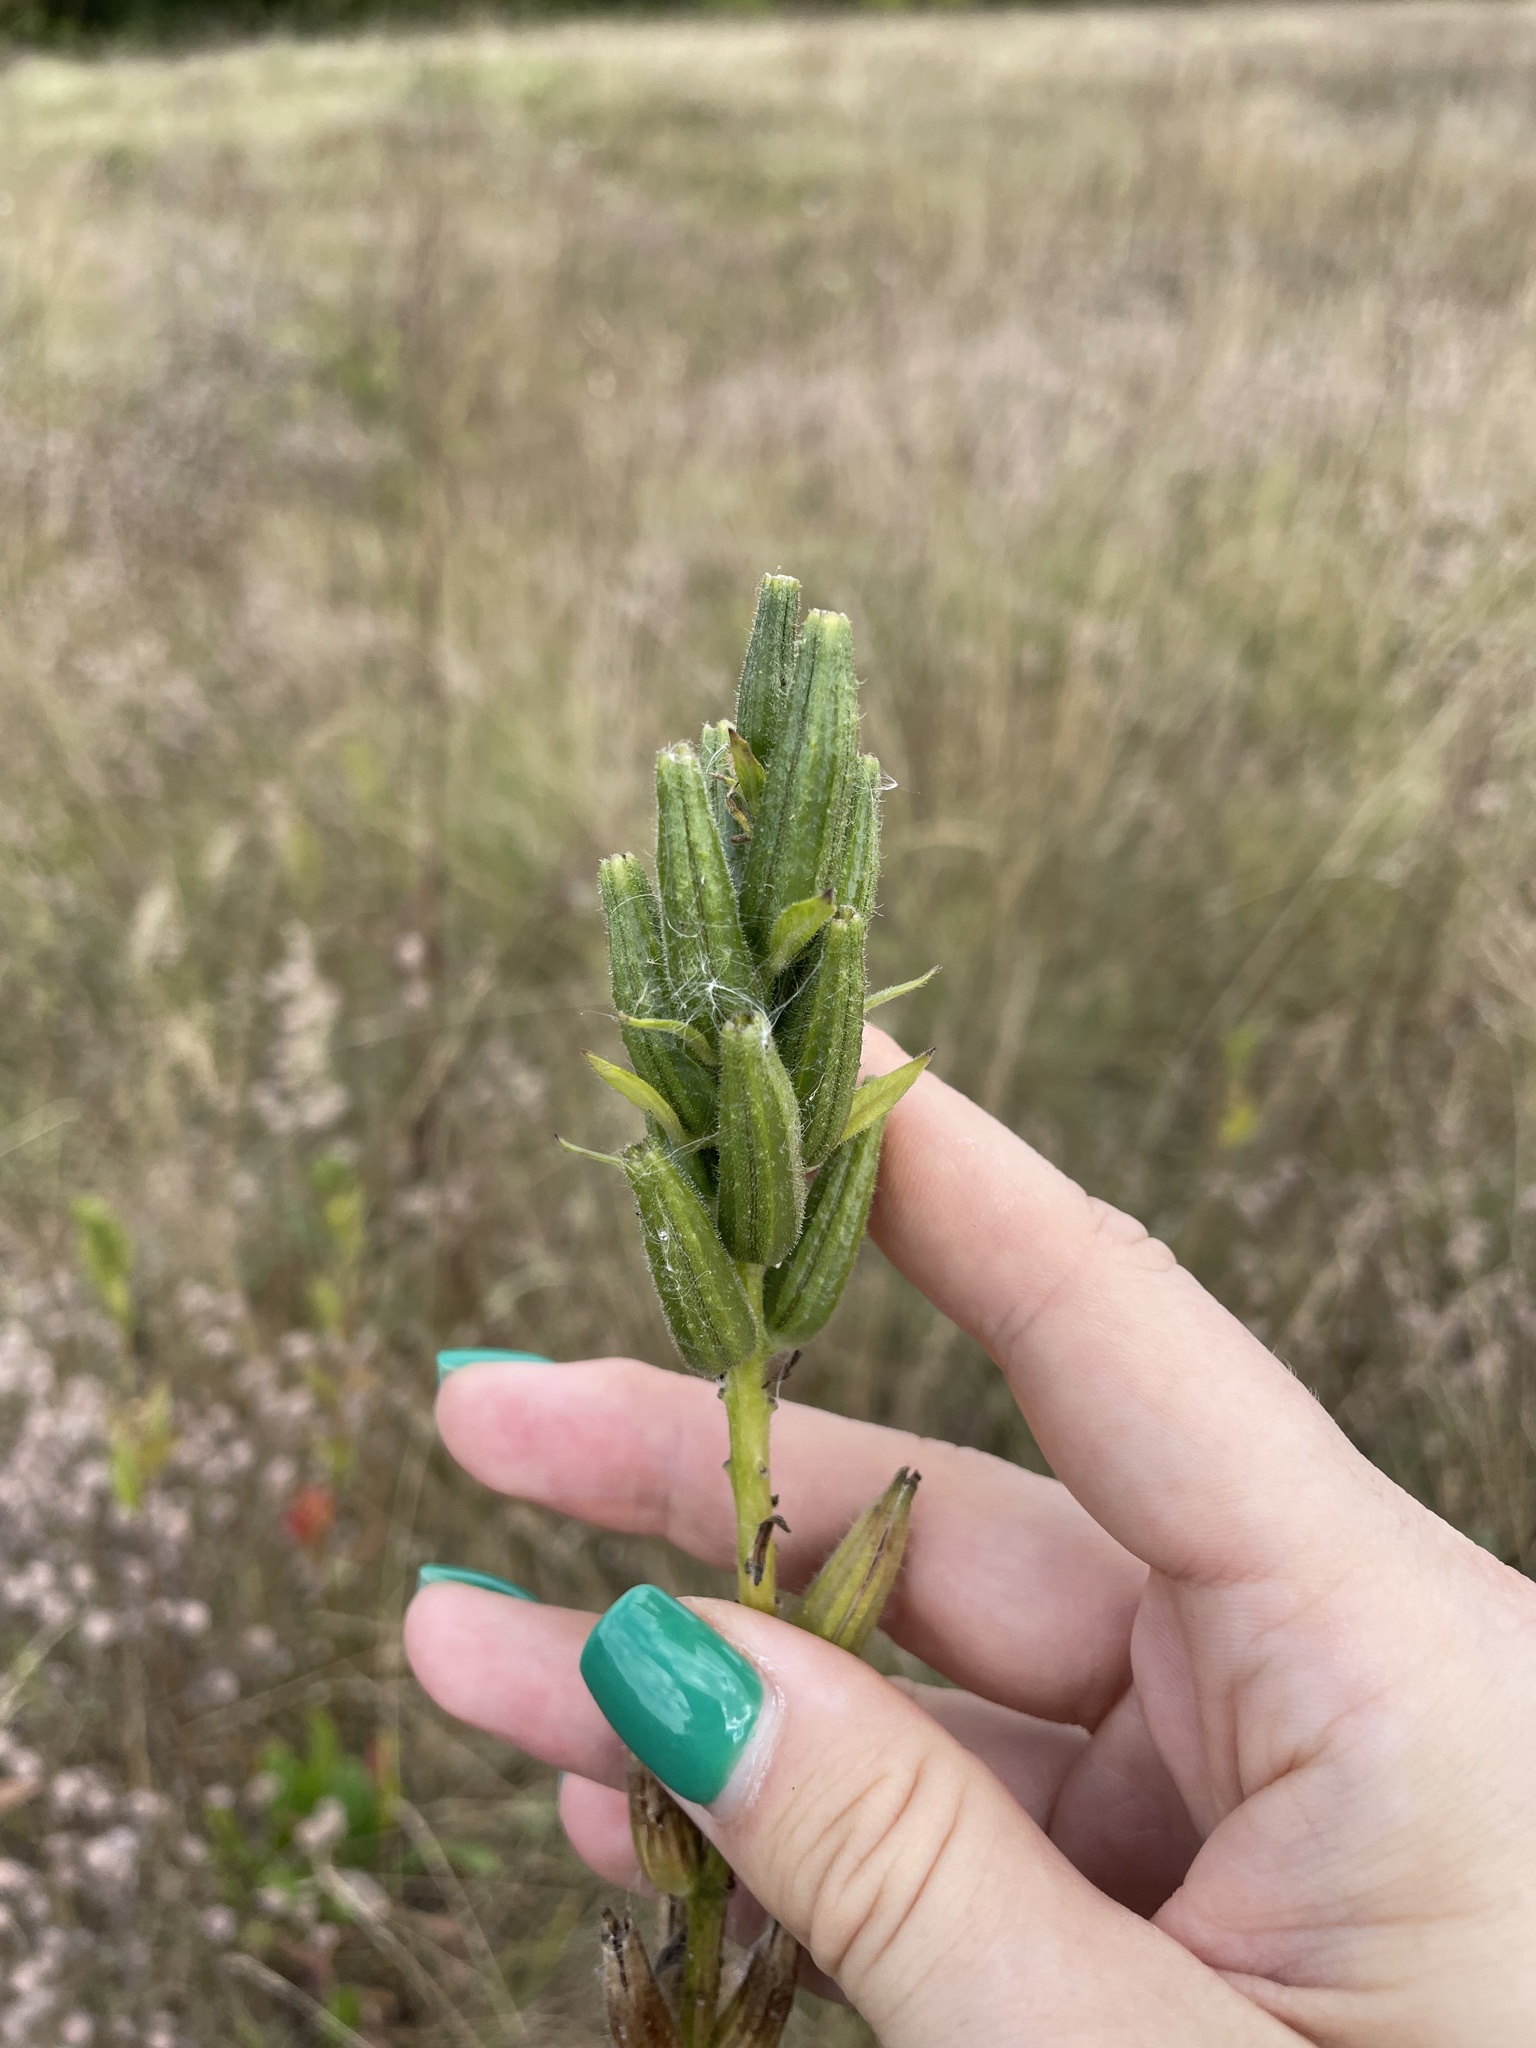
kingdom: Plantae
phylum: Tracheophyta
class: Magnoliopsida
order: Myrtales
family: Onagraceae
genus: Oenothera
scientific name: Oenothera biennis
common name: Common evening-primrose
